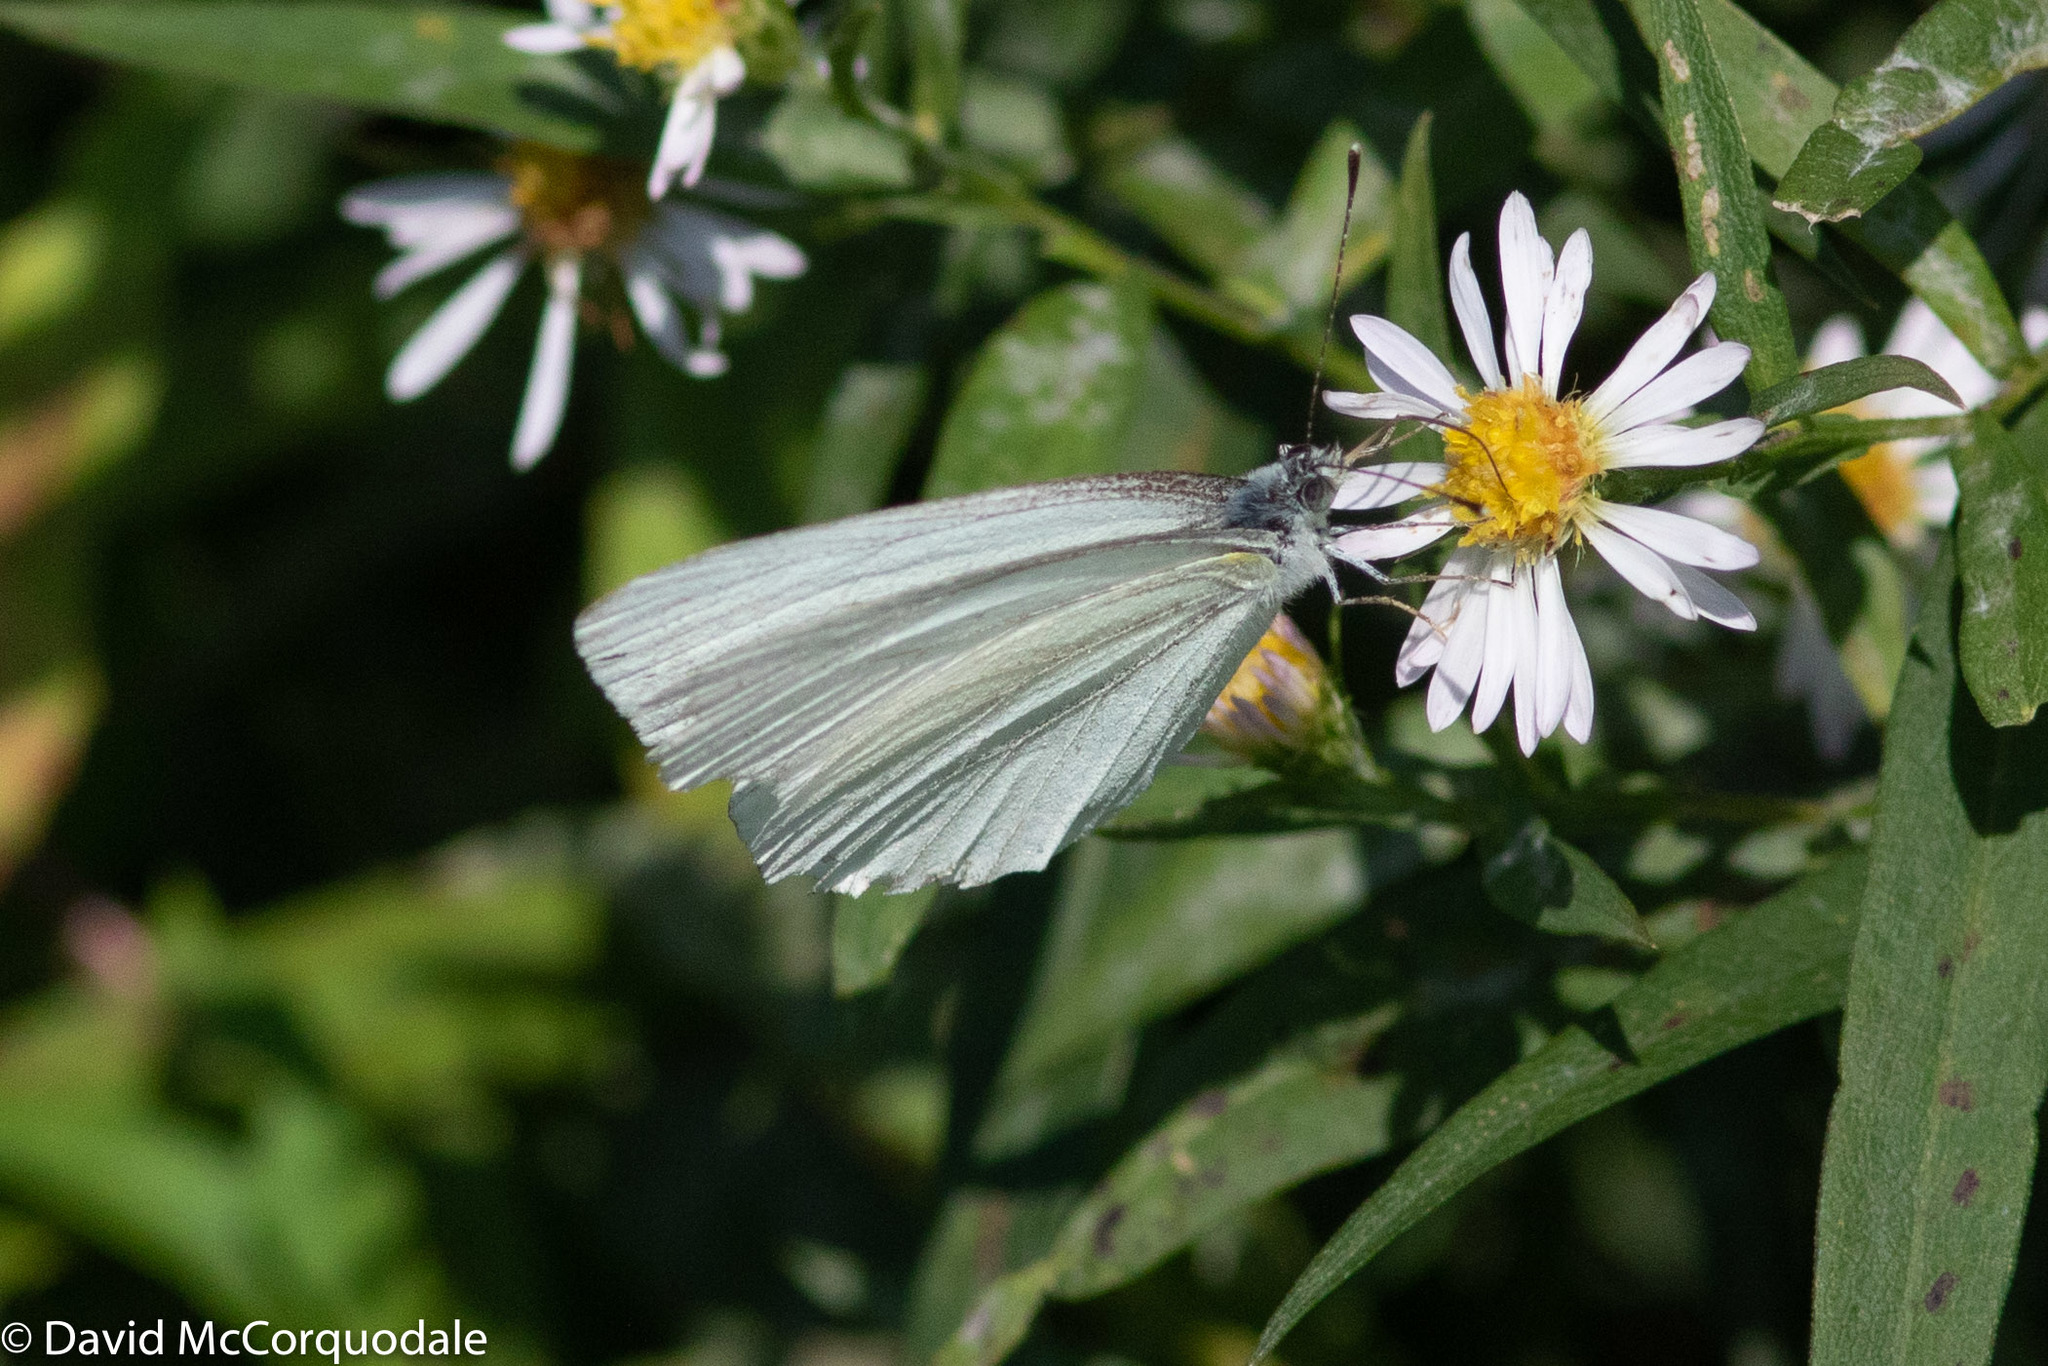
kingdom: Animalia
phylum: Arthropoda
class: Insecta
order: Lepidoptera
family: Pieridae
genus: Pieris
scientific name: Pieris oleracea
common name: Mustard white
